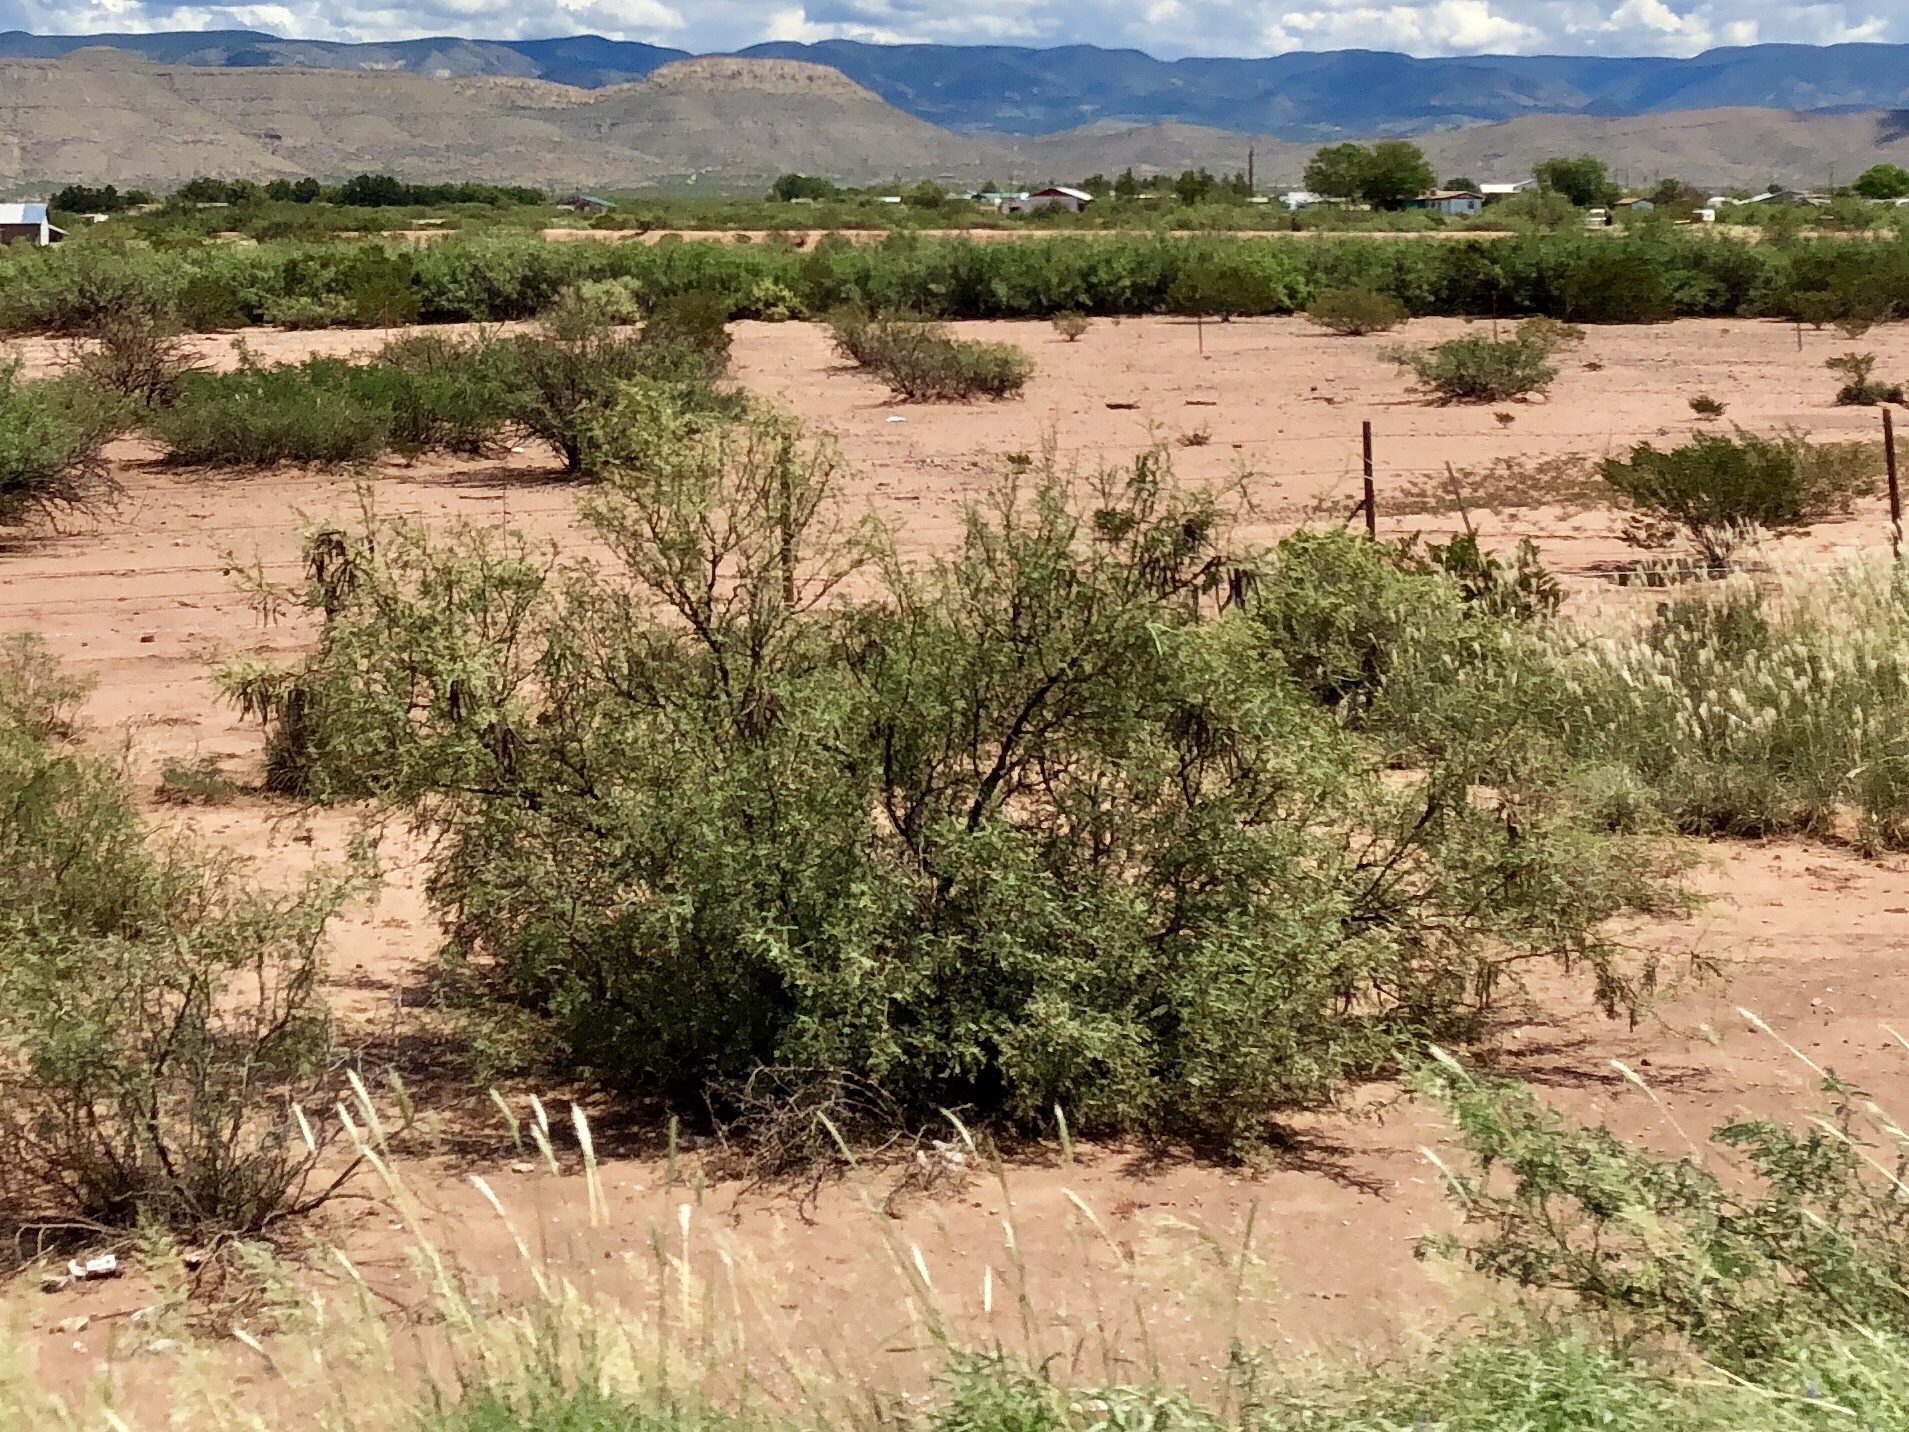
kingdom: Plantae
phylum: Tracheophyta
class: Magnoliopsida
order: Zygophyllales
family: Zygophyllaceae
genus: Larrea
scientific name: Larrea tridentata
